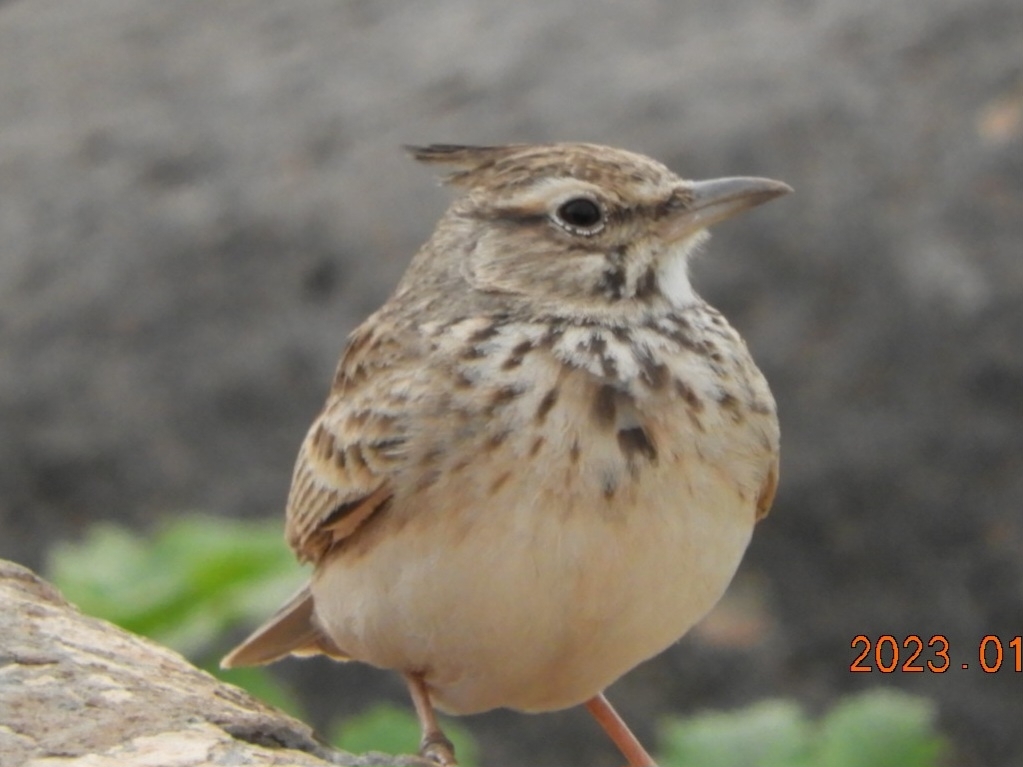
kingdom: Animalia
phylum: Chordata
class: Aves
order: Passeriformes
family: Alaudidae
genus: Galerida
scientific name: Galerida cristata
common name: Crested lark
